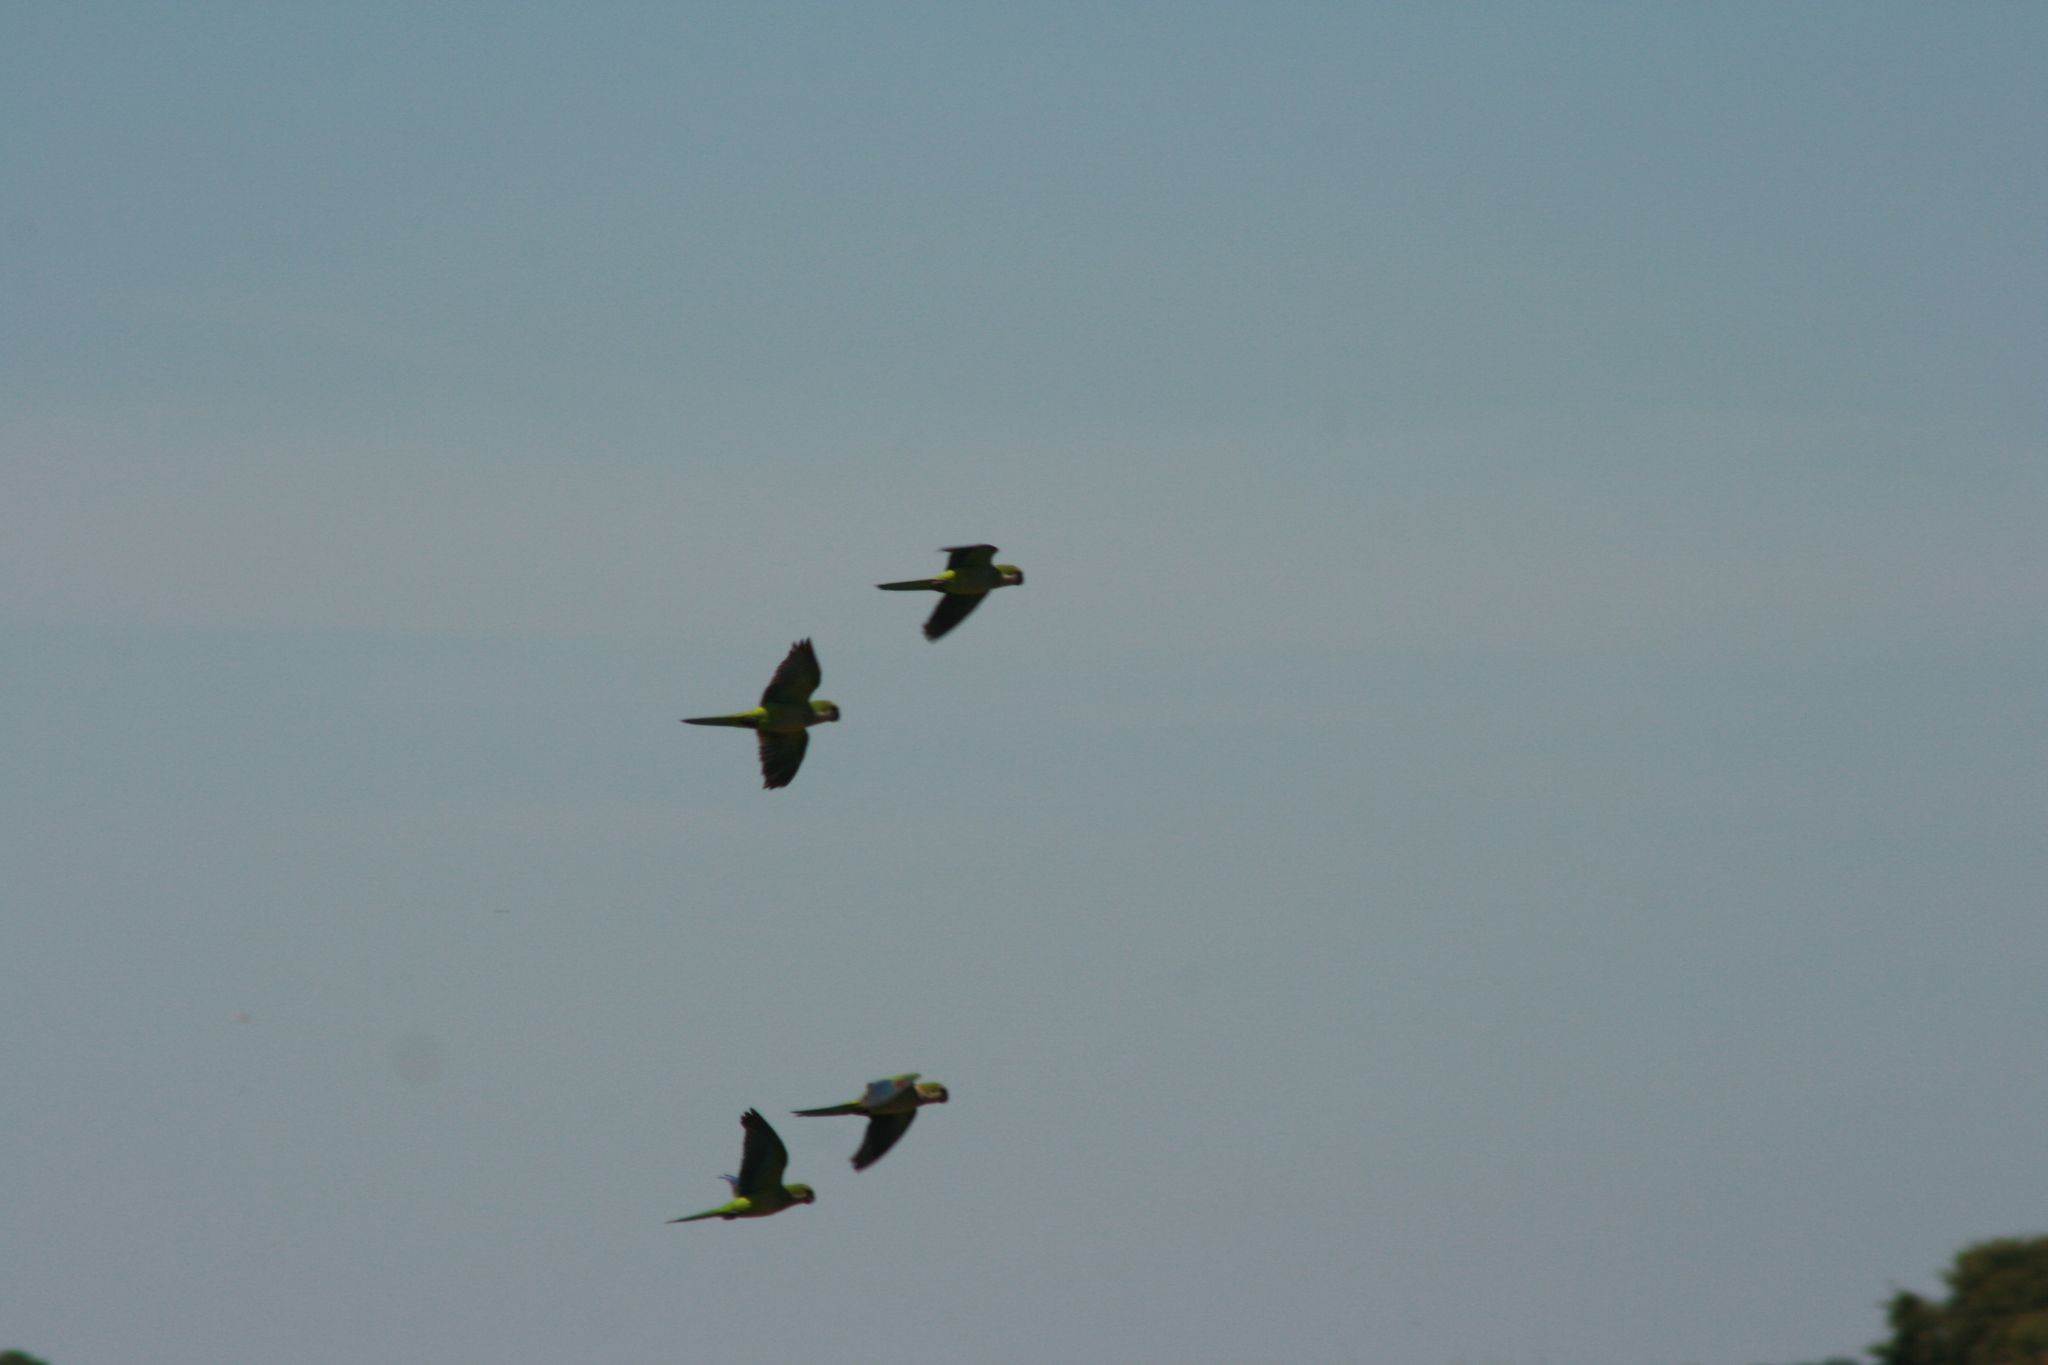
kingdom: Animalia
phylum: Chordata
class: Aves
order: Psittaciformes
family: Psittacidae
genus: Myiopsitta
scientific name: Myiopsitta monachus
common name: Monk parakeet
